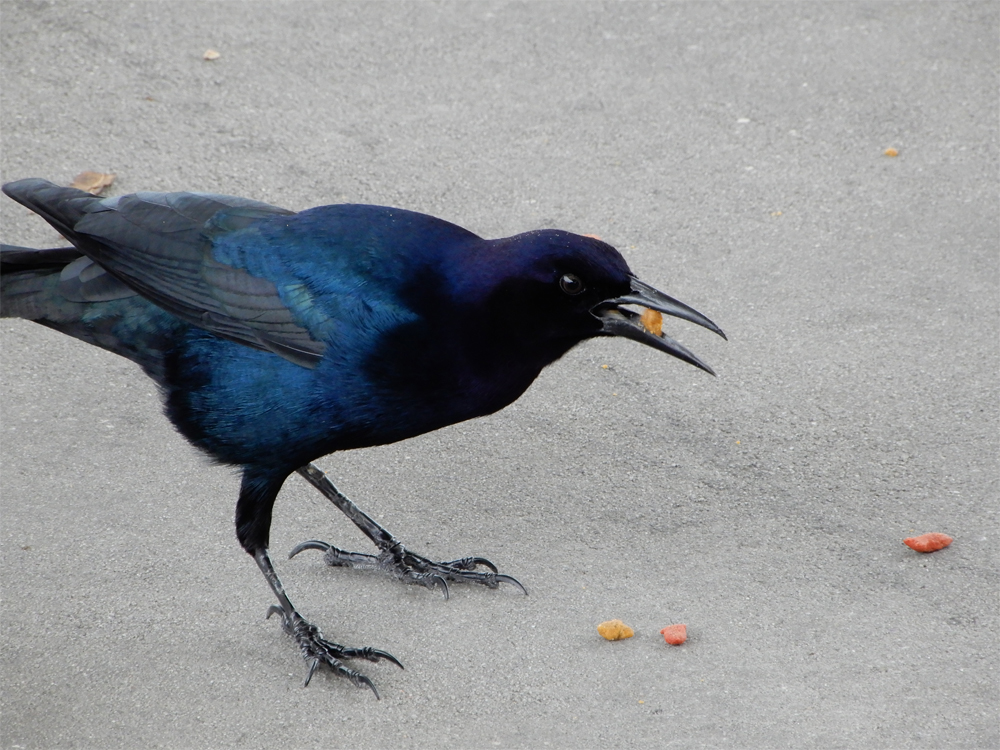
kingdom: Animalia
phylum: Chordata
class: Aves
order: Passeriformes
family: Icteridae
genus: Quiscalus
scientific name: Quiscalus major
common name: Boat-tailed grackle
